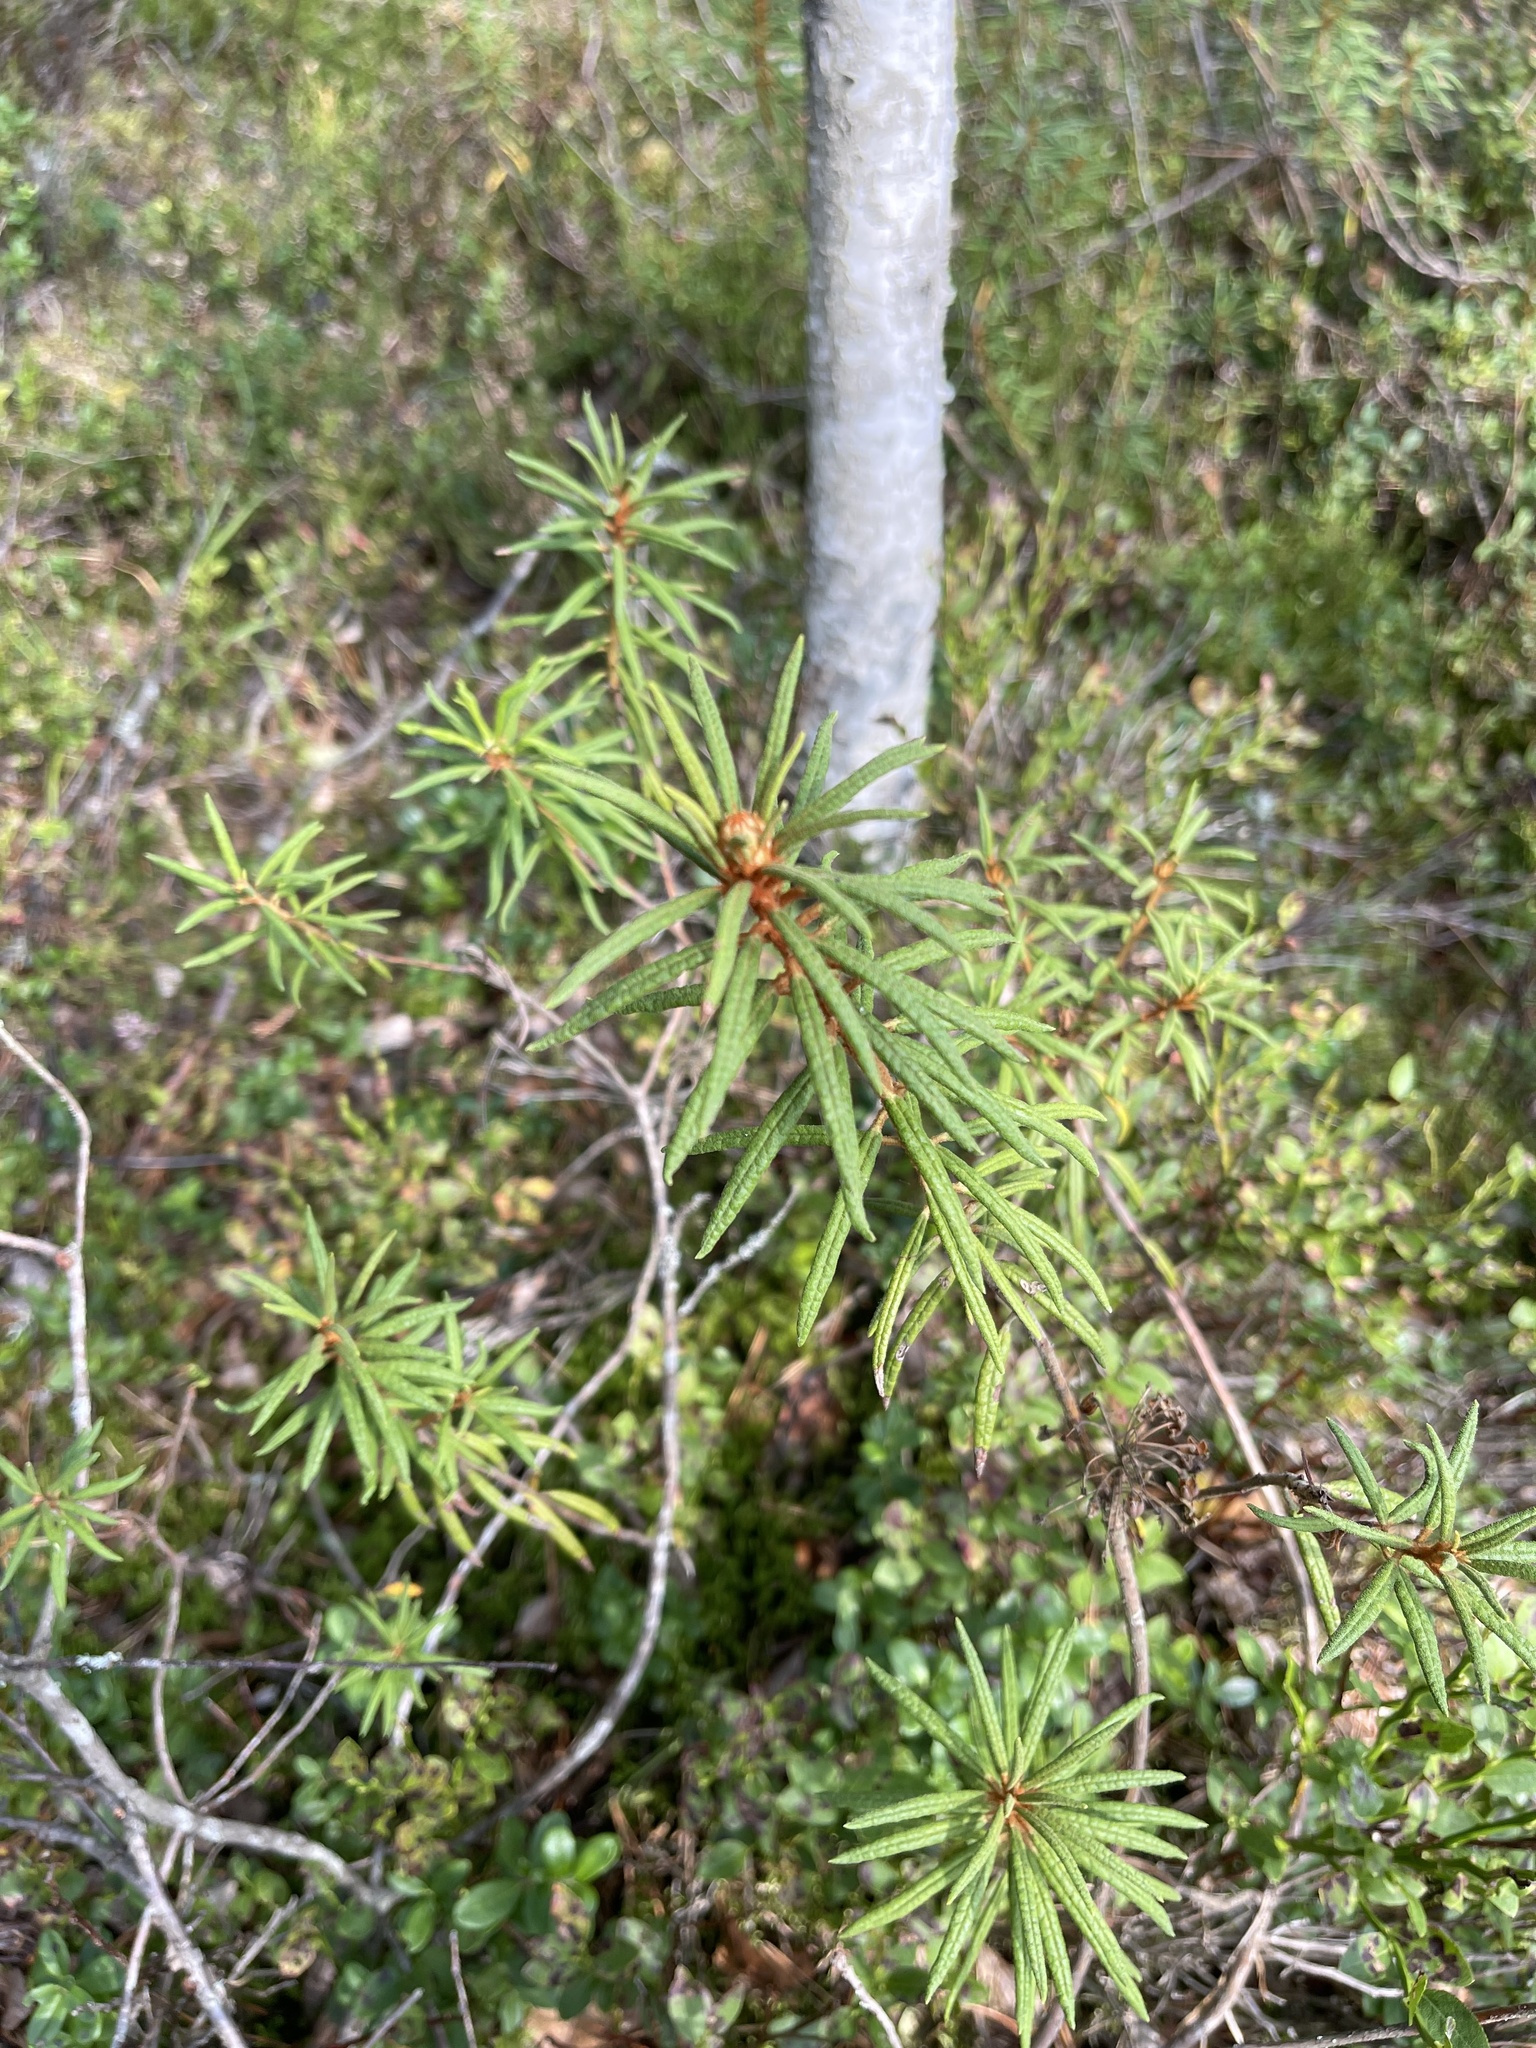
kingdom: Plantae
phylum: Tracheophyta
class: Magnoliopsida
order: Ericales
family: Ericaceae
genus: Rhododendron
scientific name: Rhododendron tomentosum
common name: Marsh labrador tea
